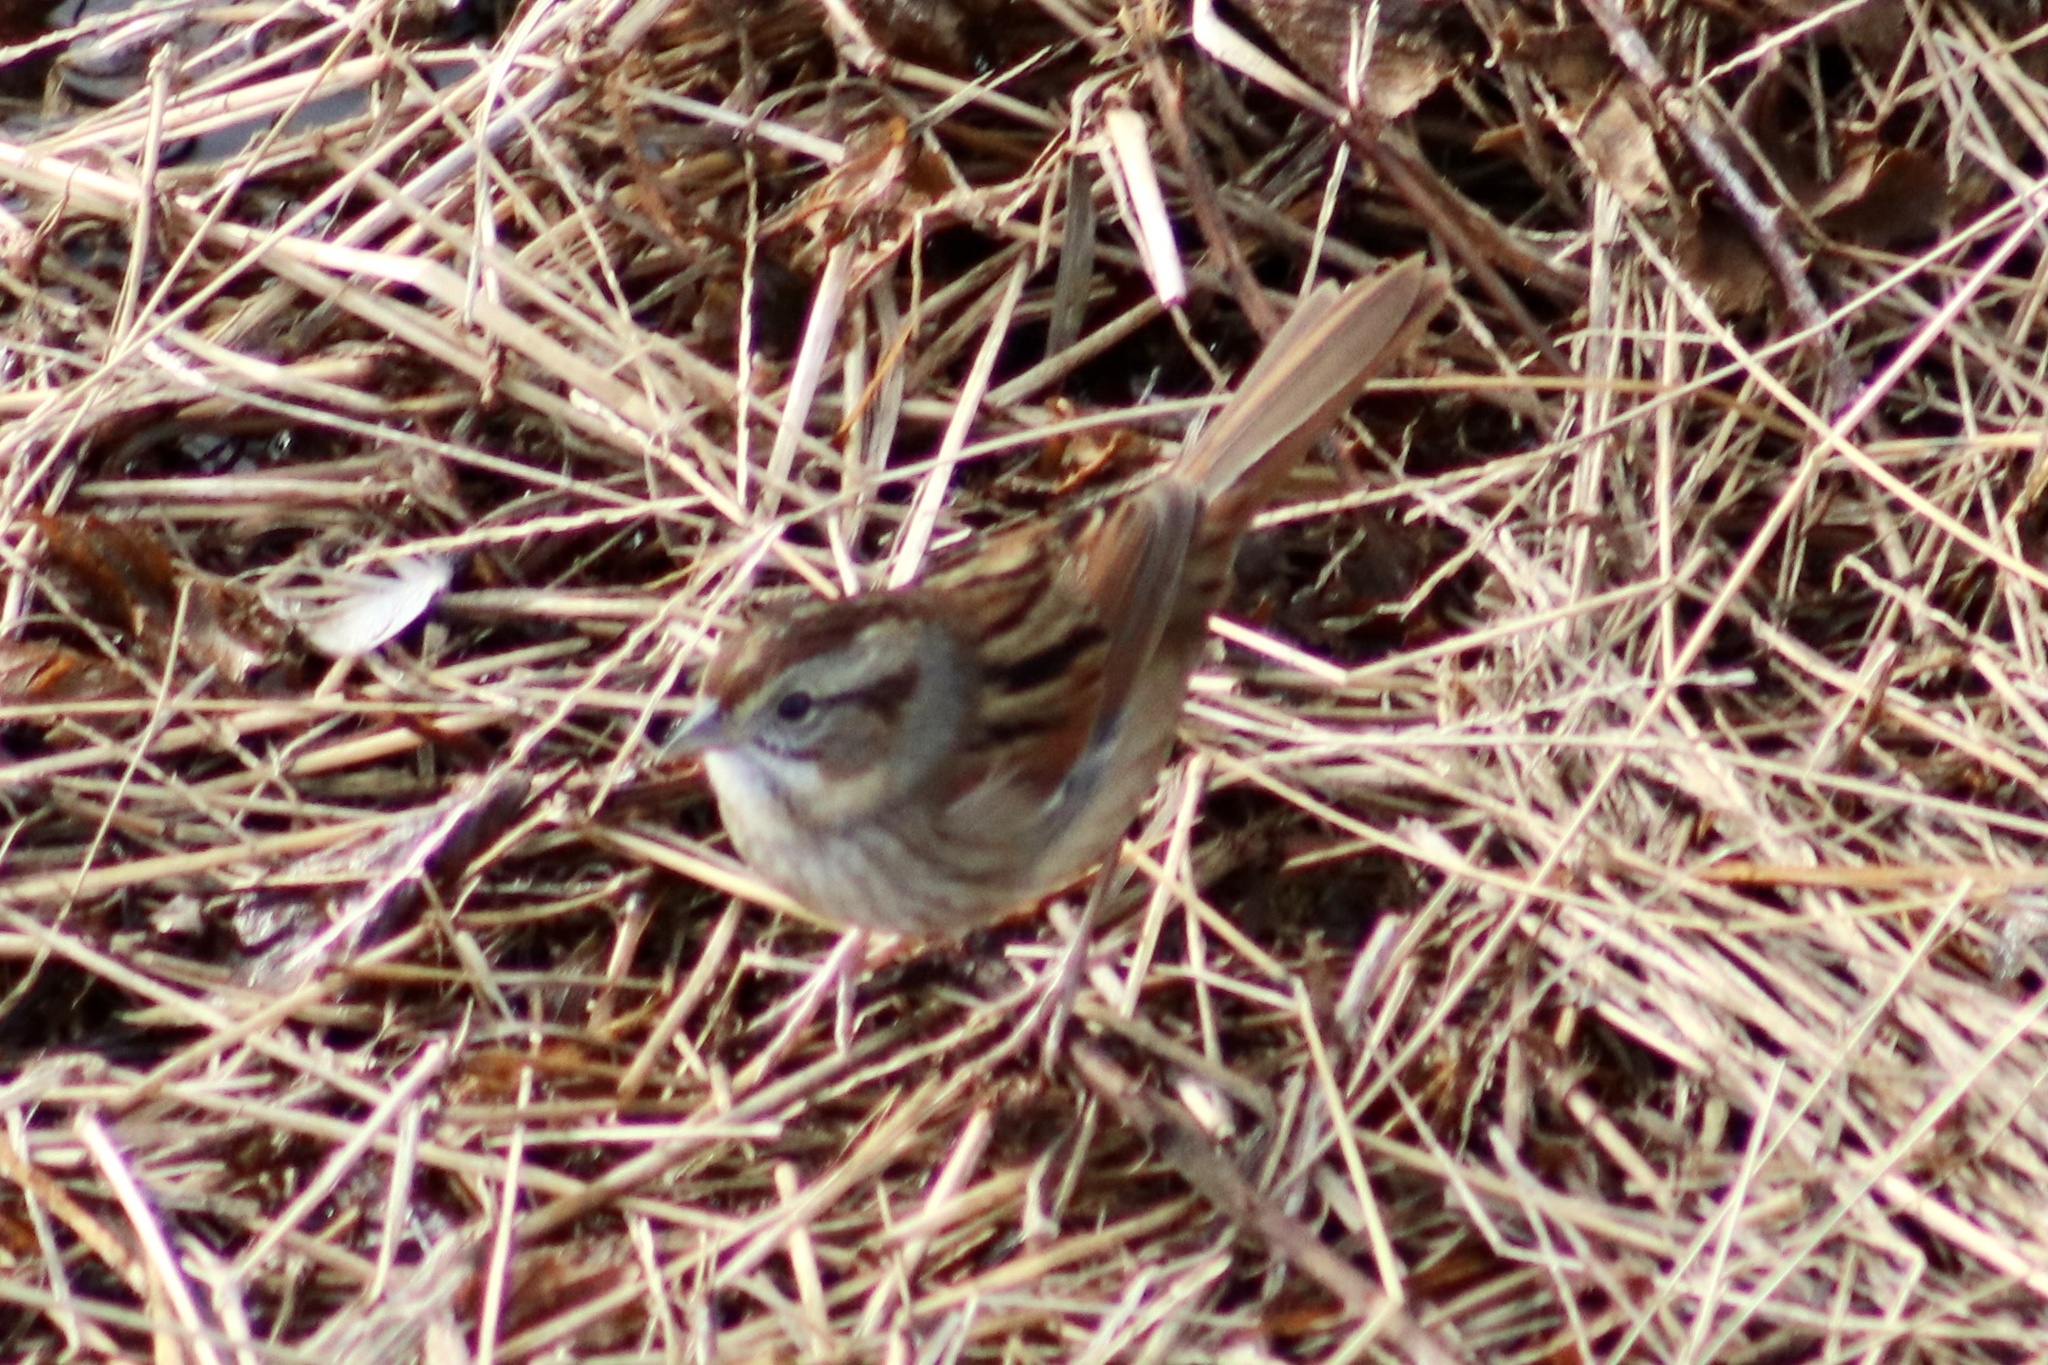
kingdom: Animalia
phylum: Chordata
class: Aves
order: Passeriformes
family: Passerellidae
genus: Melospiza
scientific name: Melospiza georgiana
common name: Swamp sparrow
